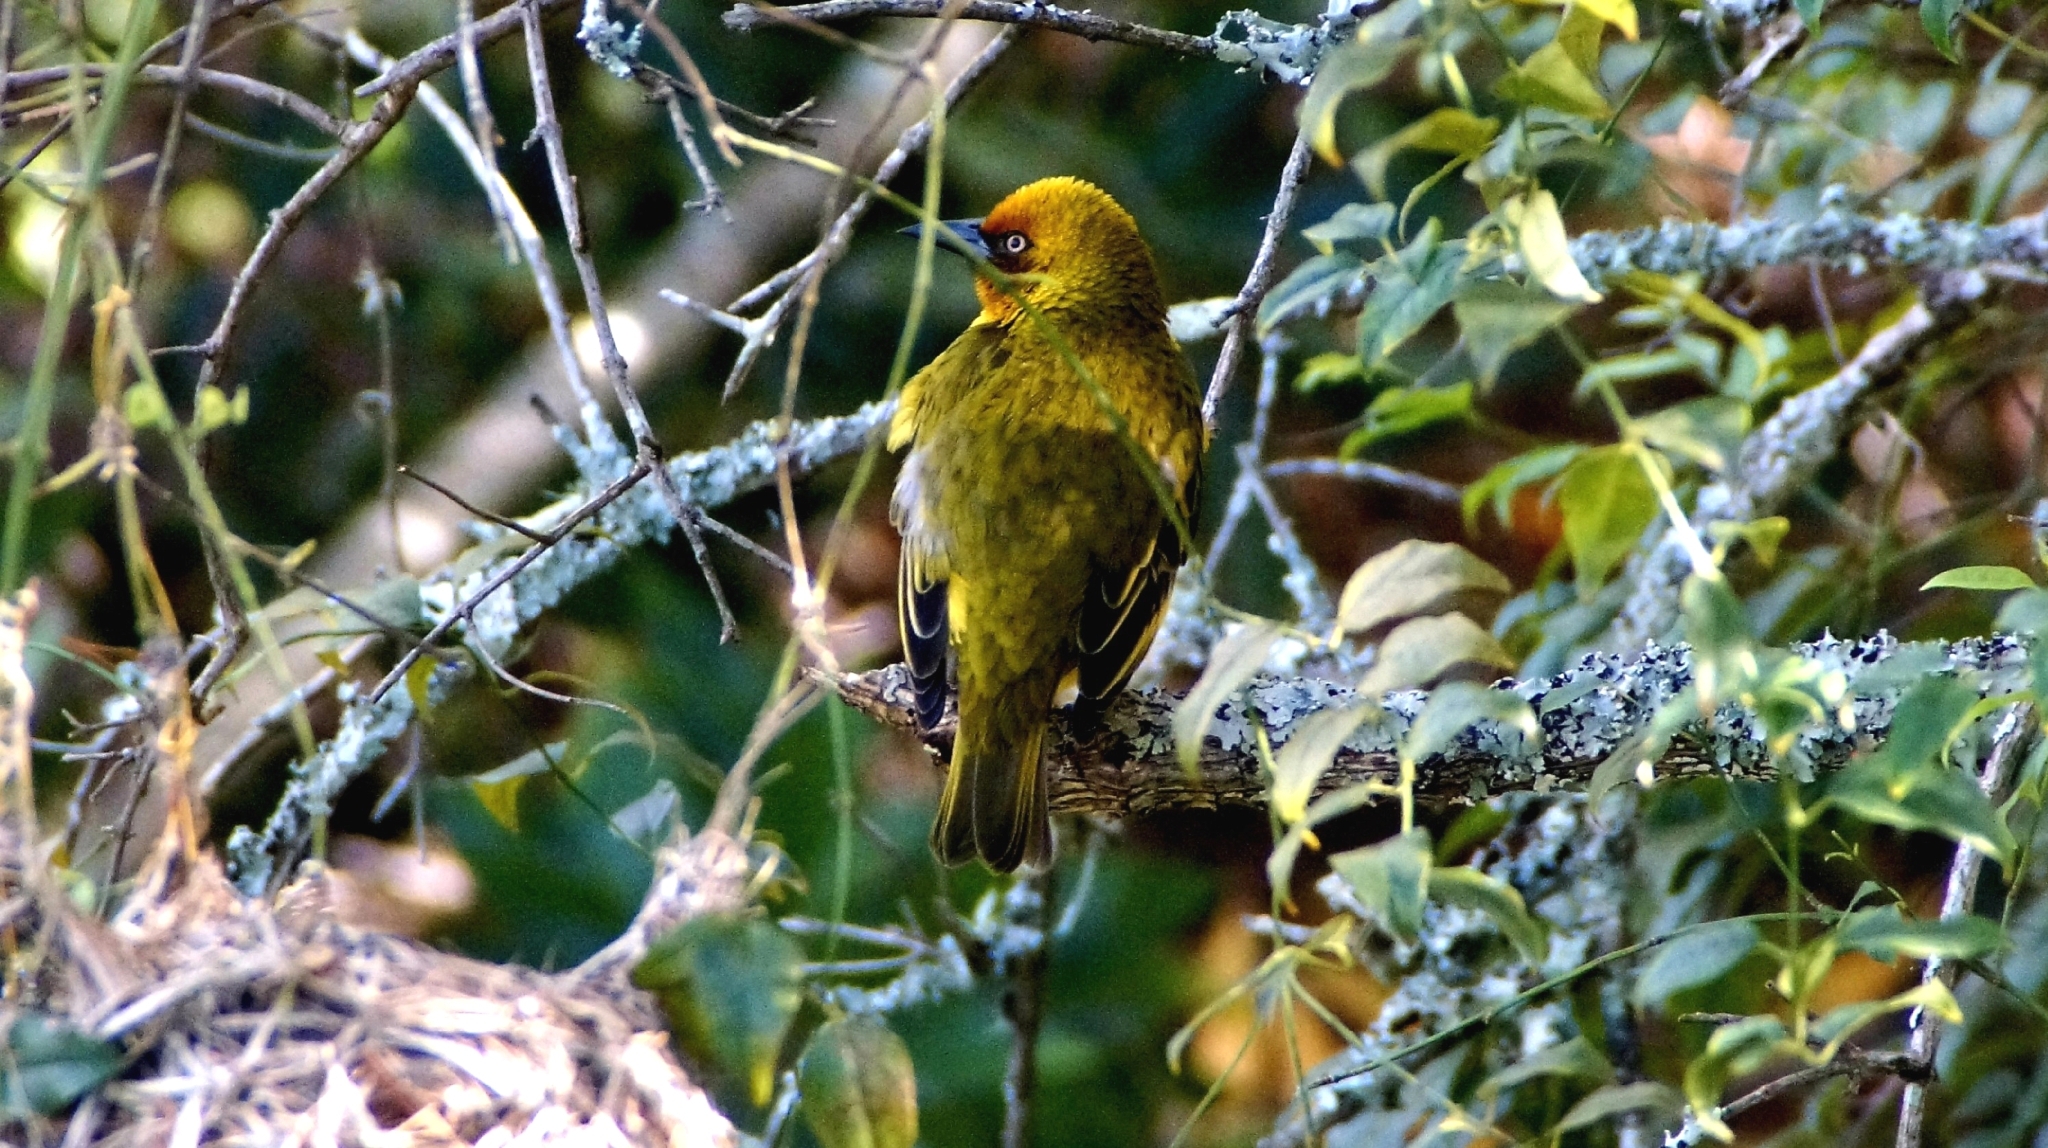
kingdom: Animalia
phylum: Chordata
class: Aves
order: Passeriformes
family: Ploceidae
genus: Ploceus
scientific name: Ploceus capensis
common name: Cape weaver
